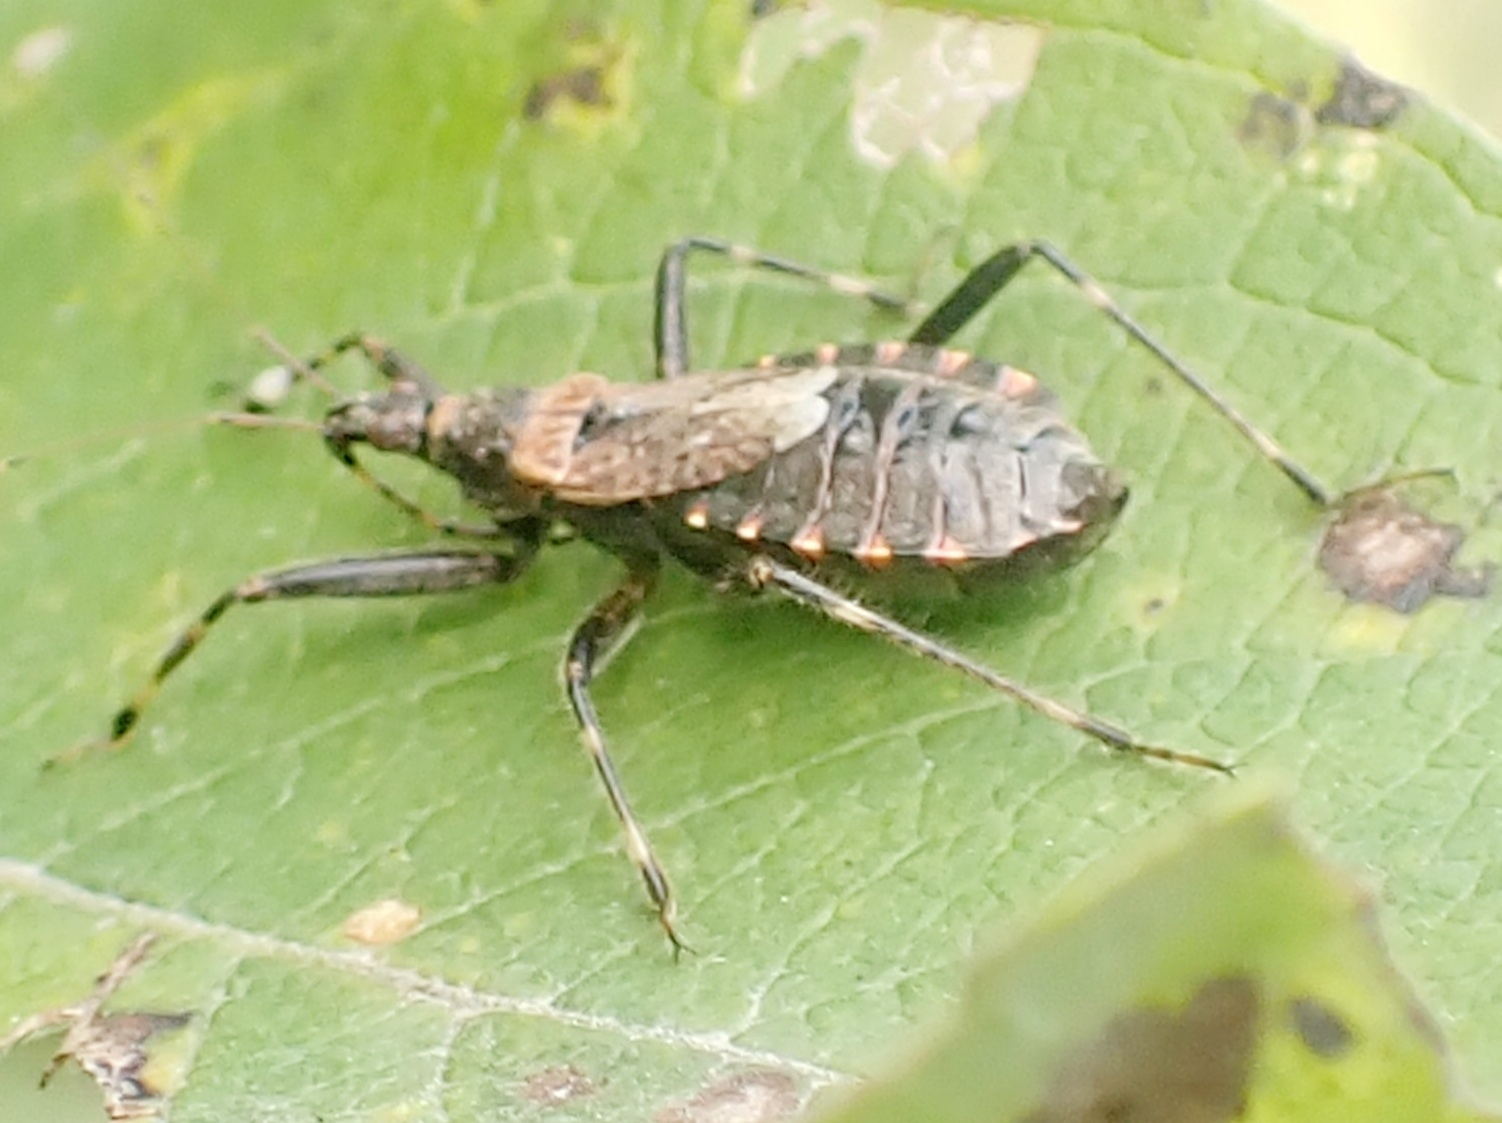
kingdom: Animalia
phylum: Arthropoda
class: Insecta
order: Hemiptera
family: Nabidae
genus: Himacerus
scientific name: Himacerus apterus
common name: Tree damsel bug
